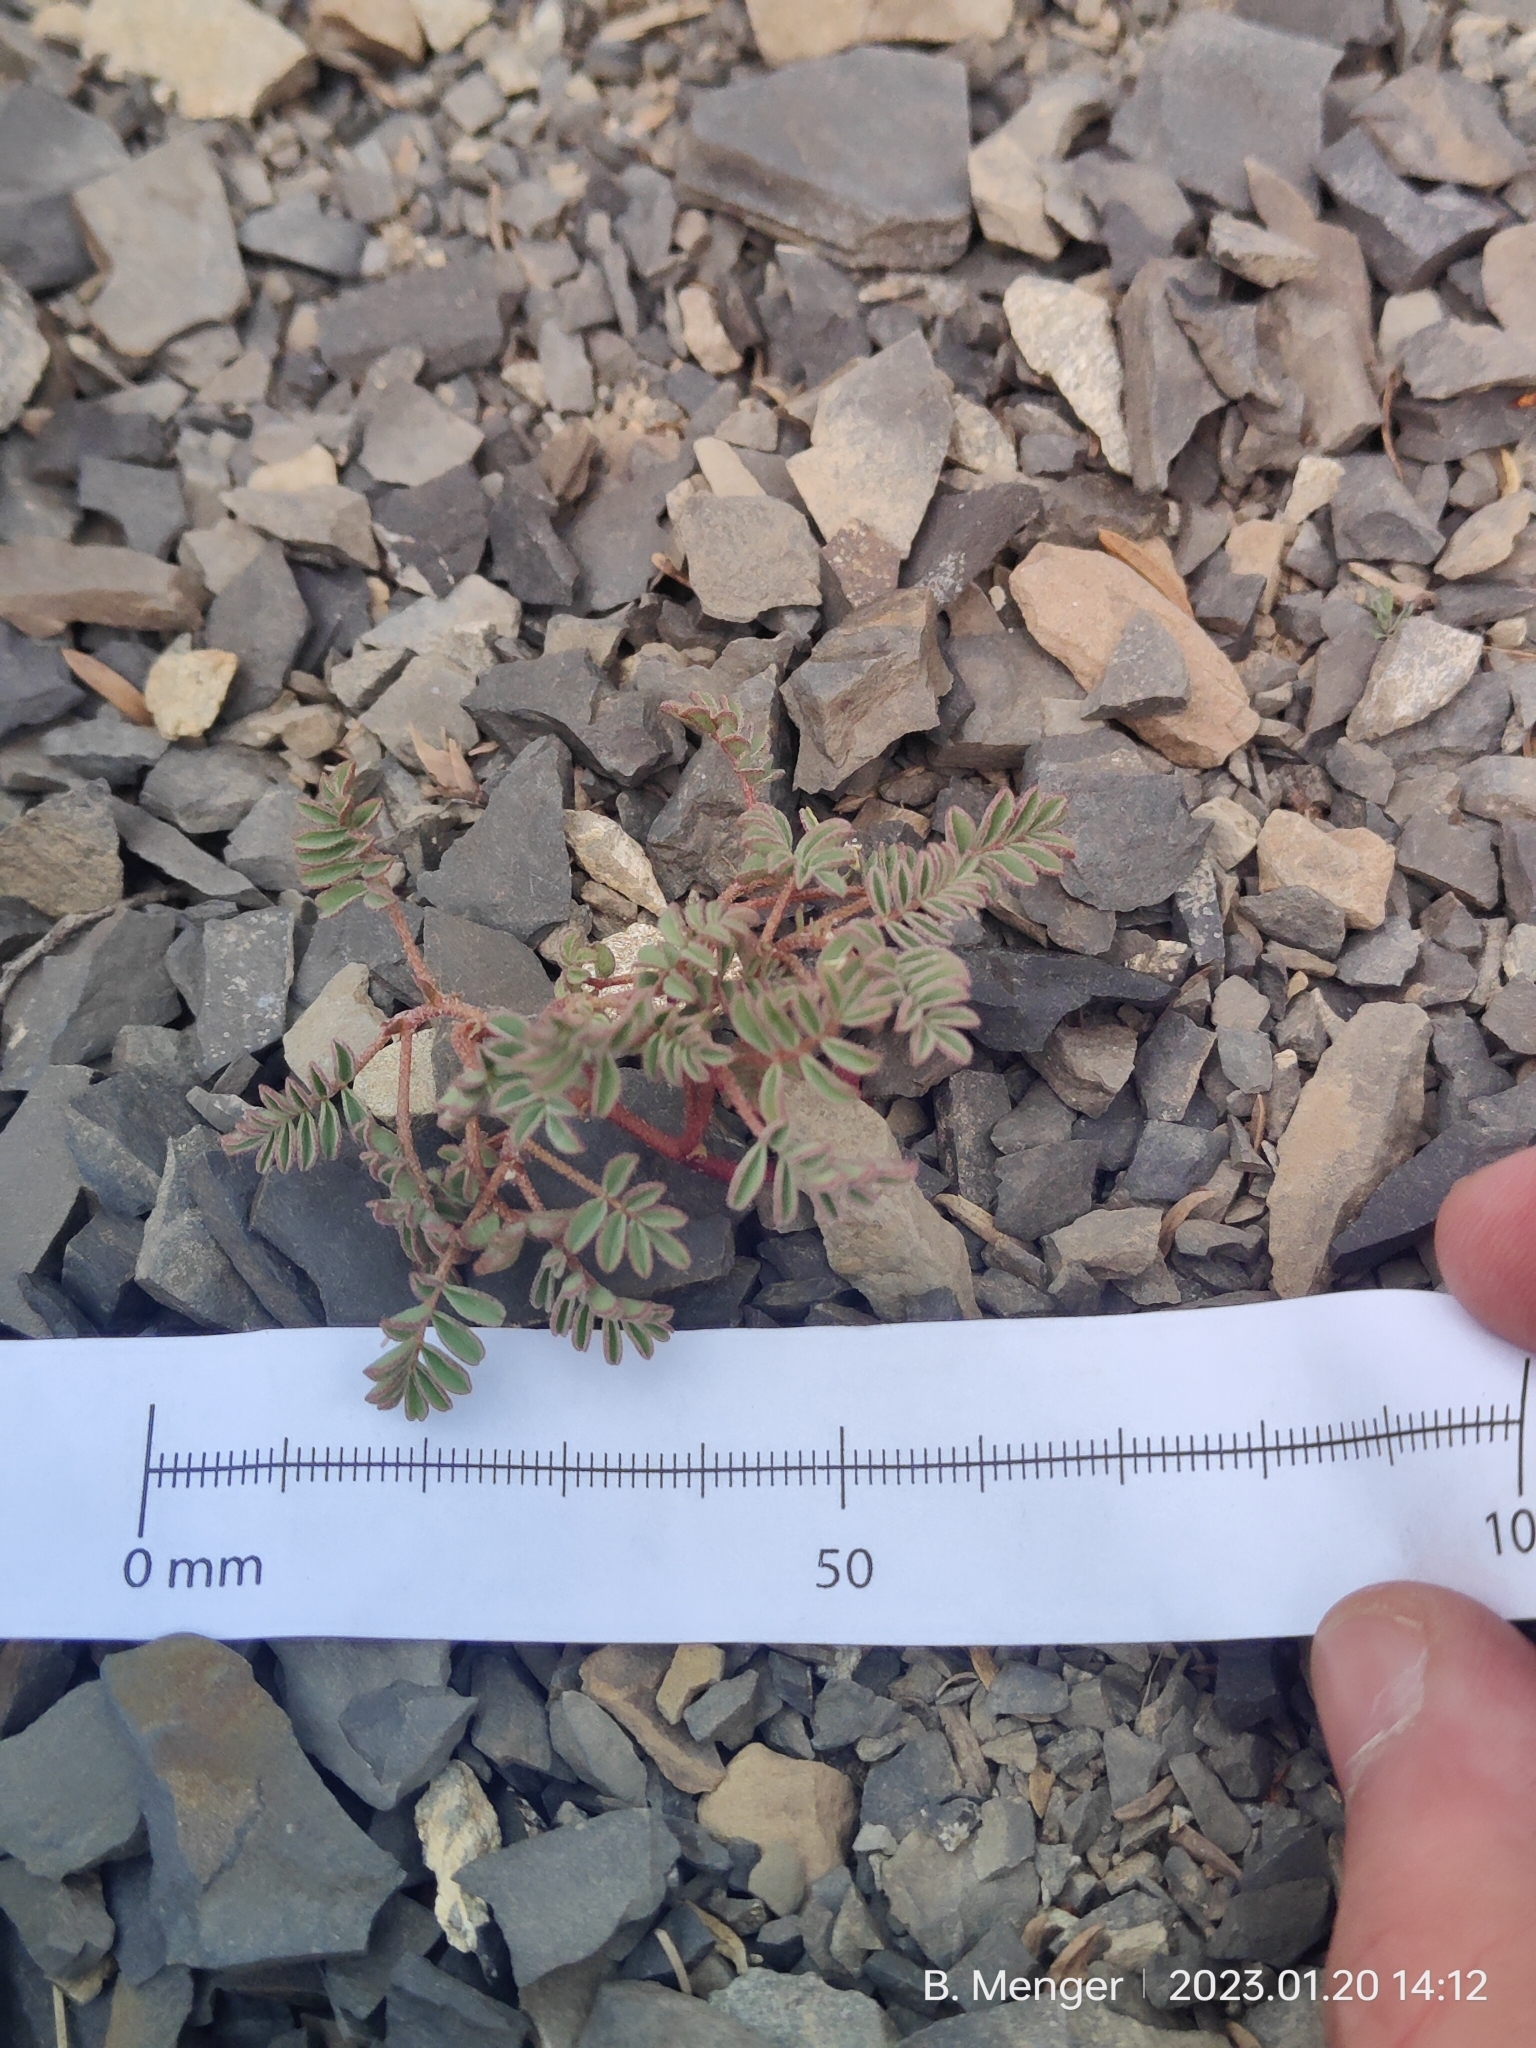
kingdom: Plantae
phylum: Tracheophyta
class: Magnoliopsida
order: Fabales
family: Fabaceae
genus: Montigena
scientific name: Montigena novae-zelandiae
